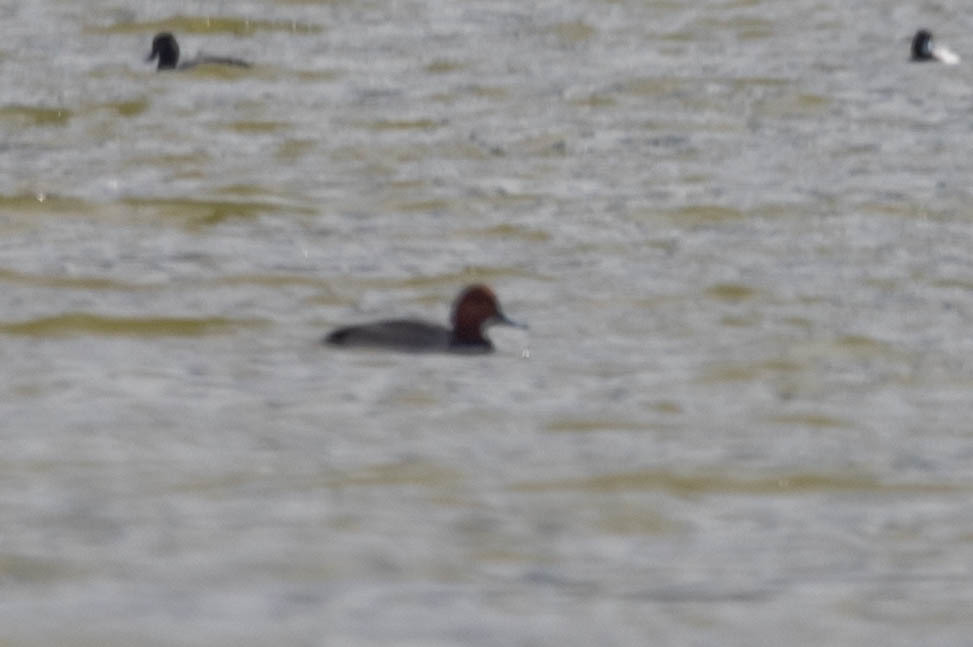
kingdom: Animalia
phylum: Chordata
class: Aves
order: Anseriformes
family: Anatidae
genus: Aythya
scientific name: Aythya americana
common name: Redhead
